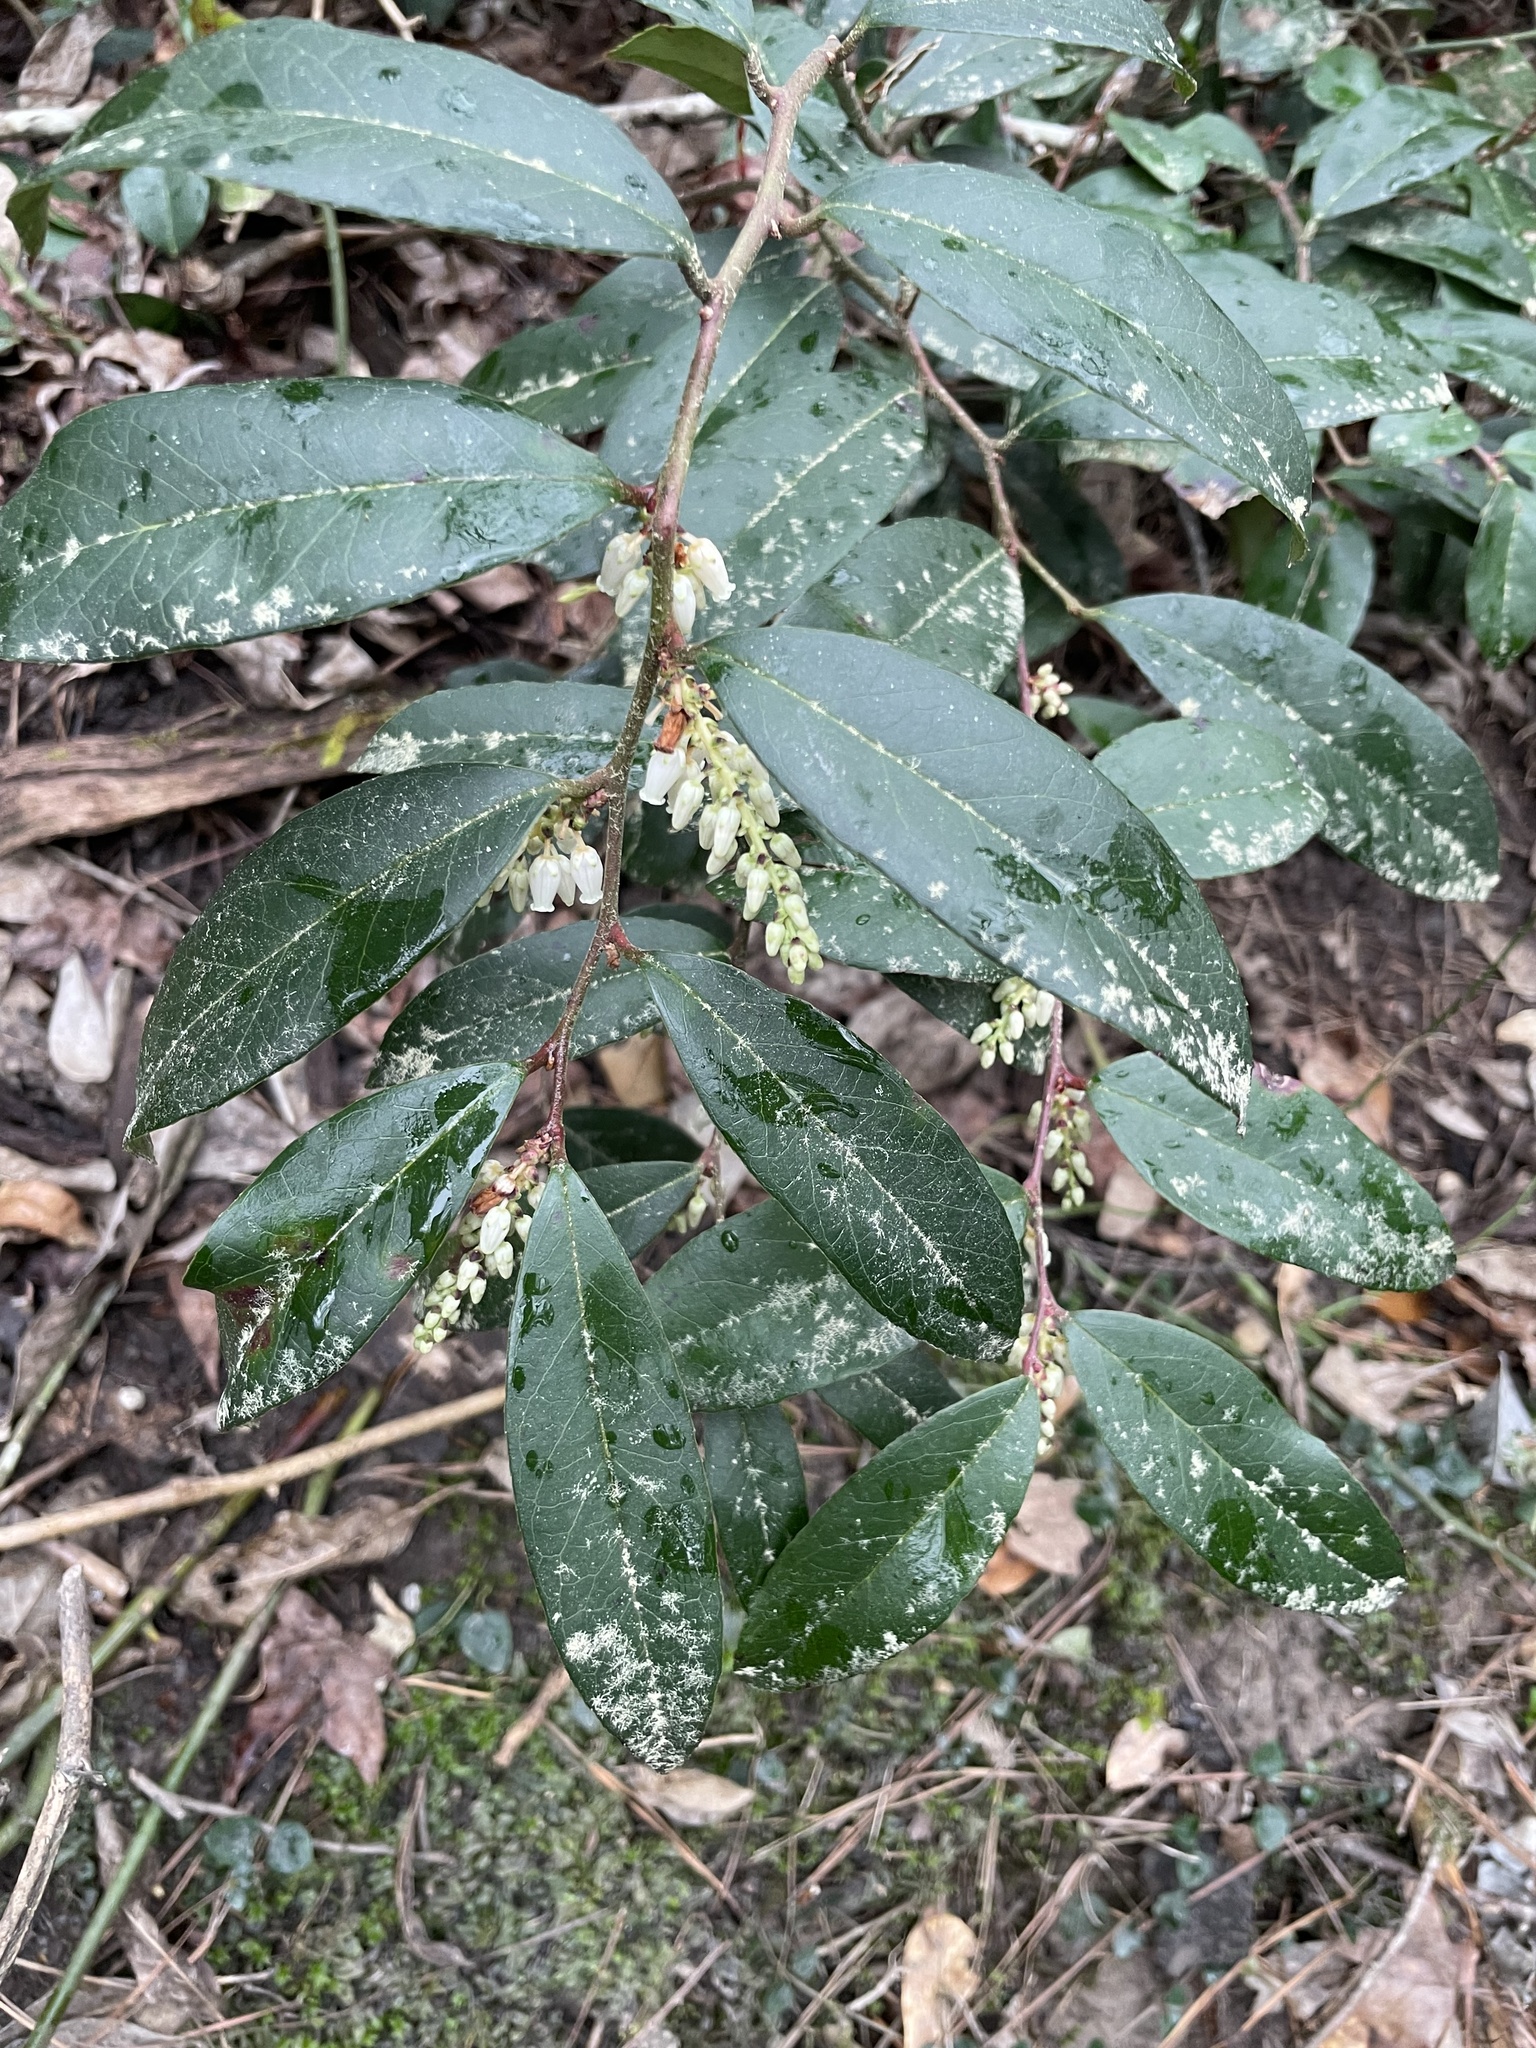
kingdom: Plantae
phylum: Tracheophyta
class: Magnoliopsida
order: Ericales
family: Ericaceae
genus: Leucothoe
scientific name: Leucothoe axillaris
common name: Leucothoe
